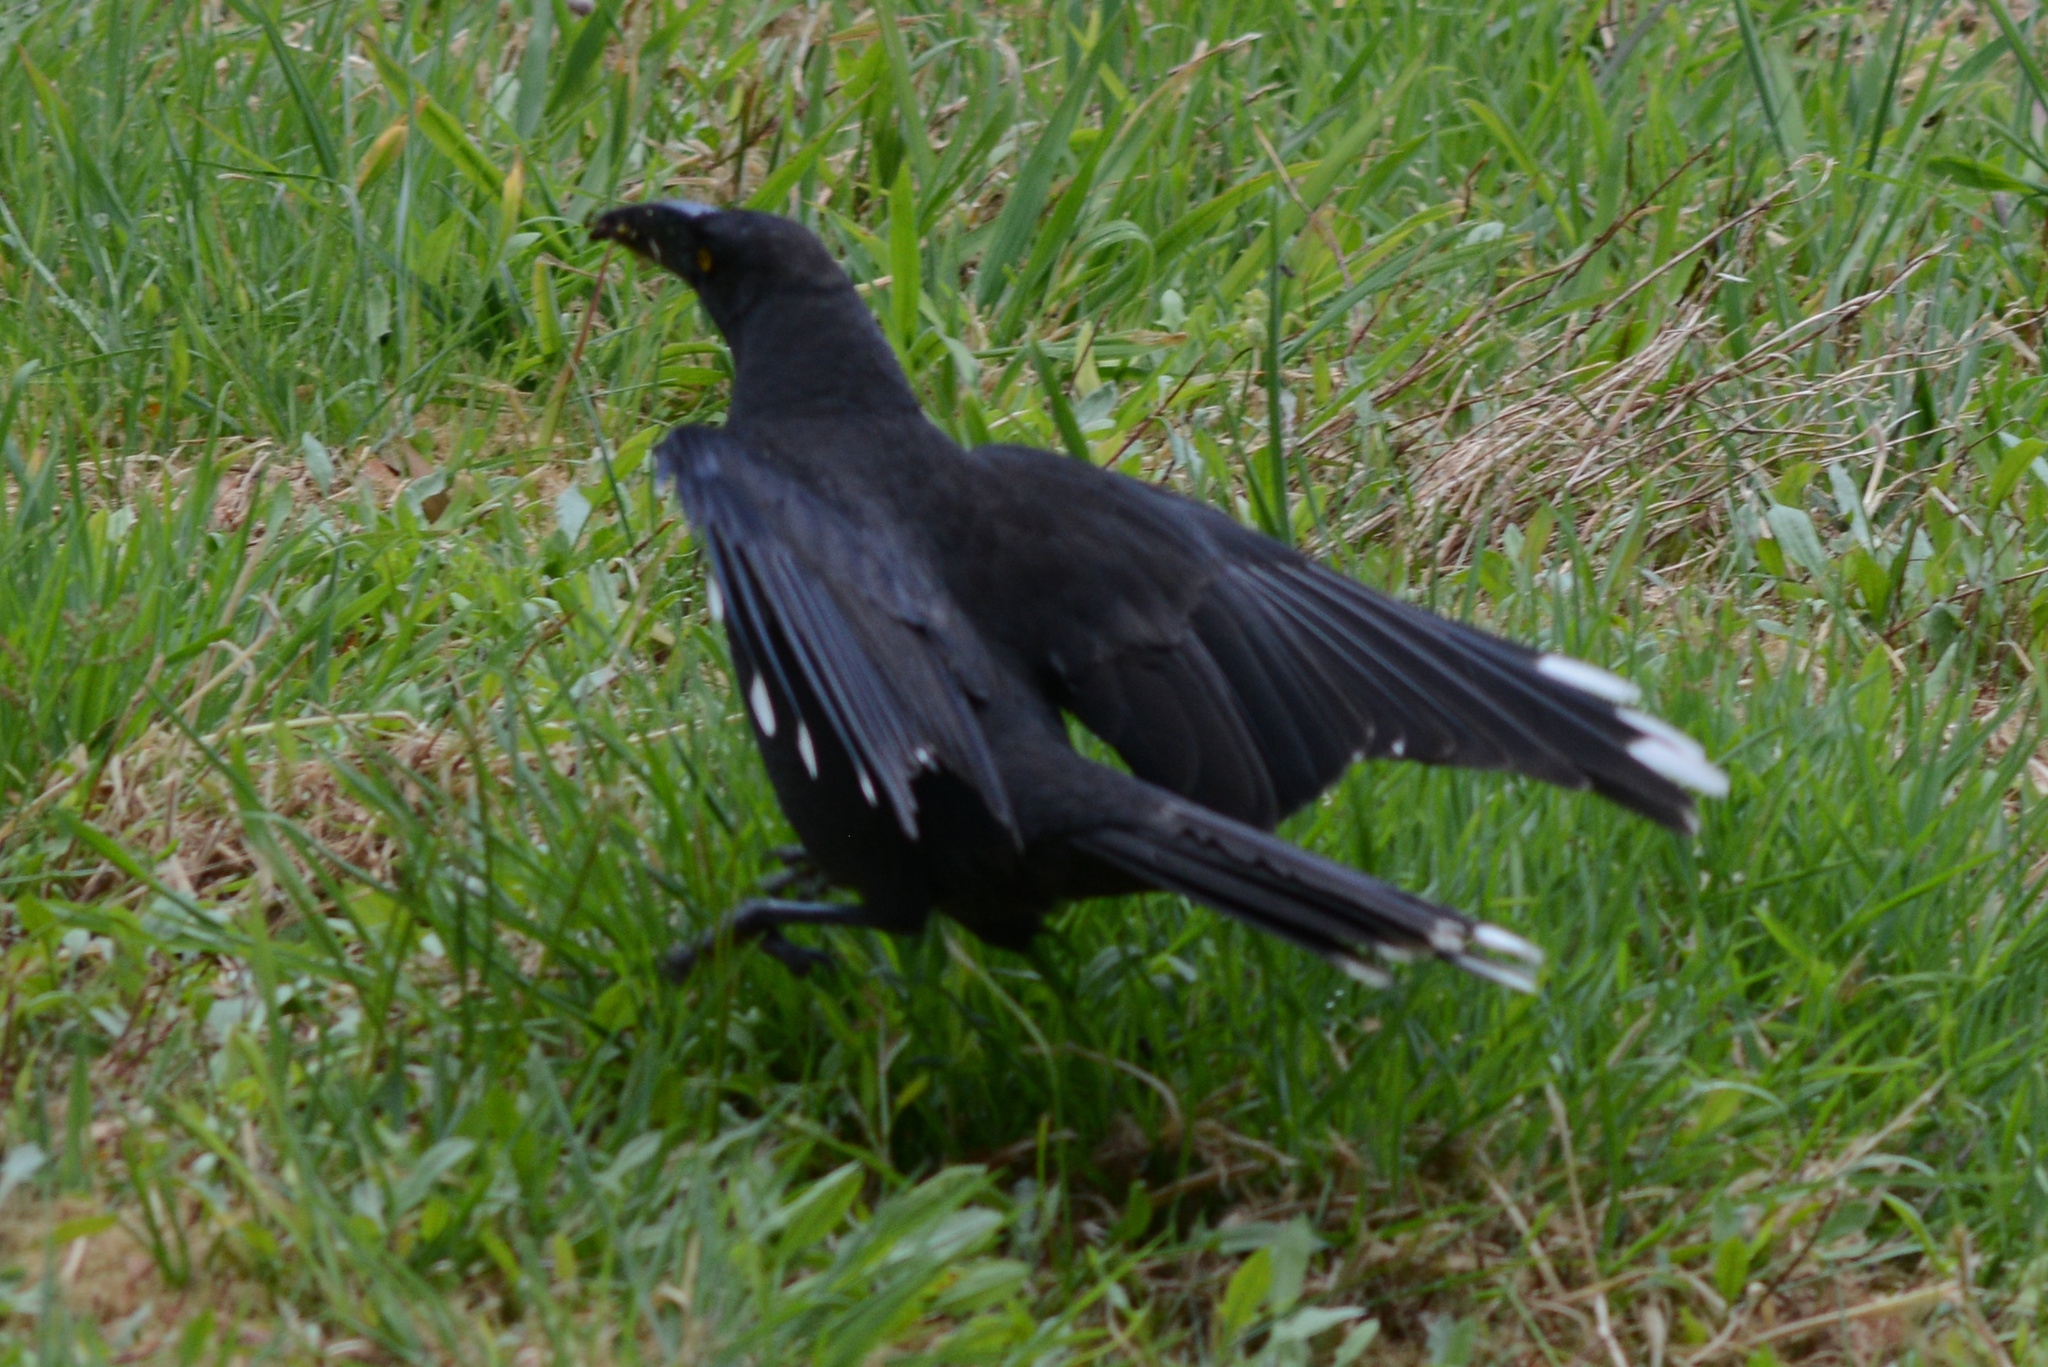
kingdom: Animalia
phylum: Chordata
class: Aves
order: Passeriformes
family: Cracticidae
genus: Strepera
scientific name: Strepera fuliginosa
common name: Black currawong
